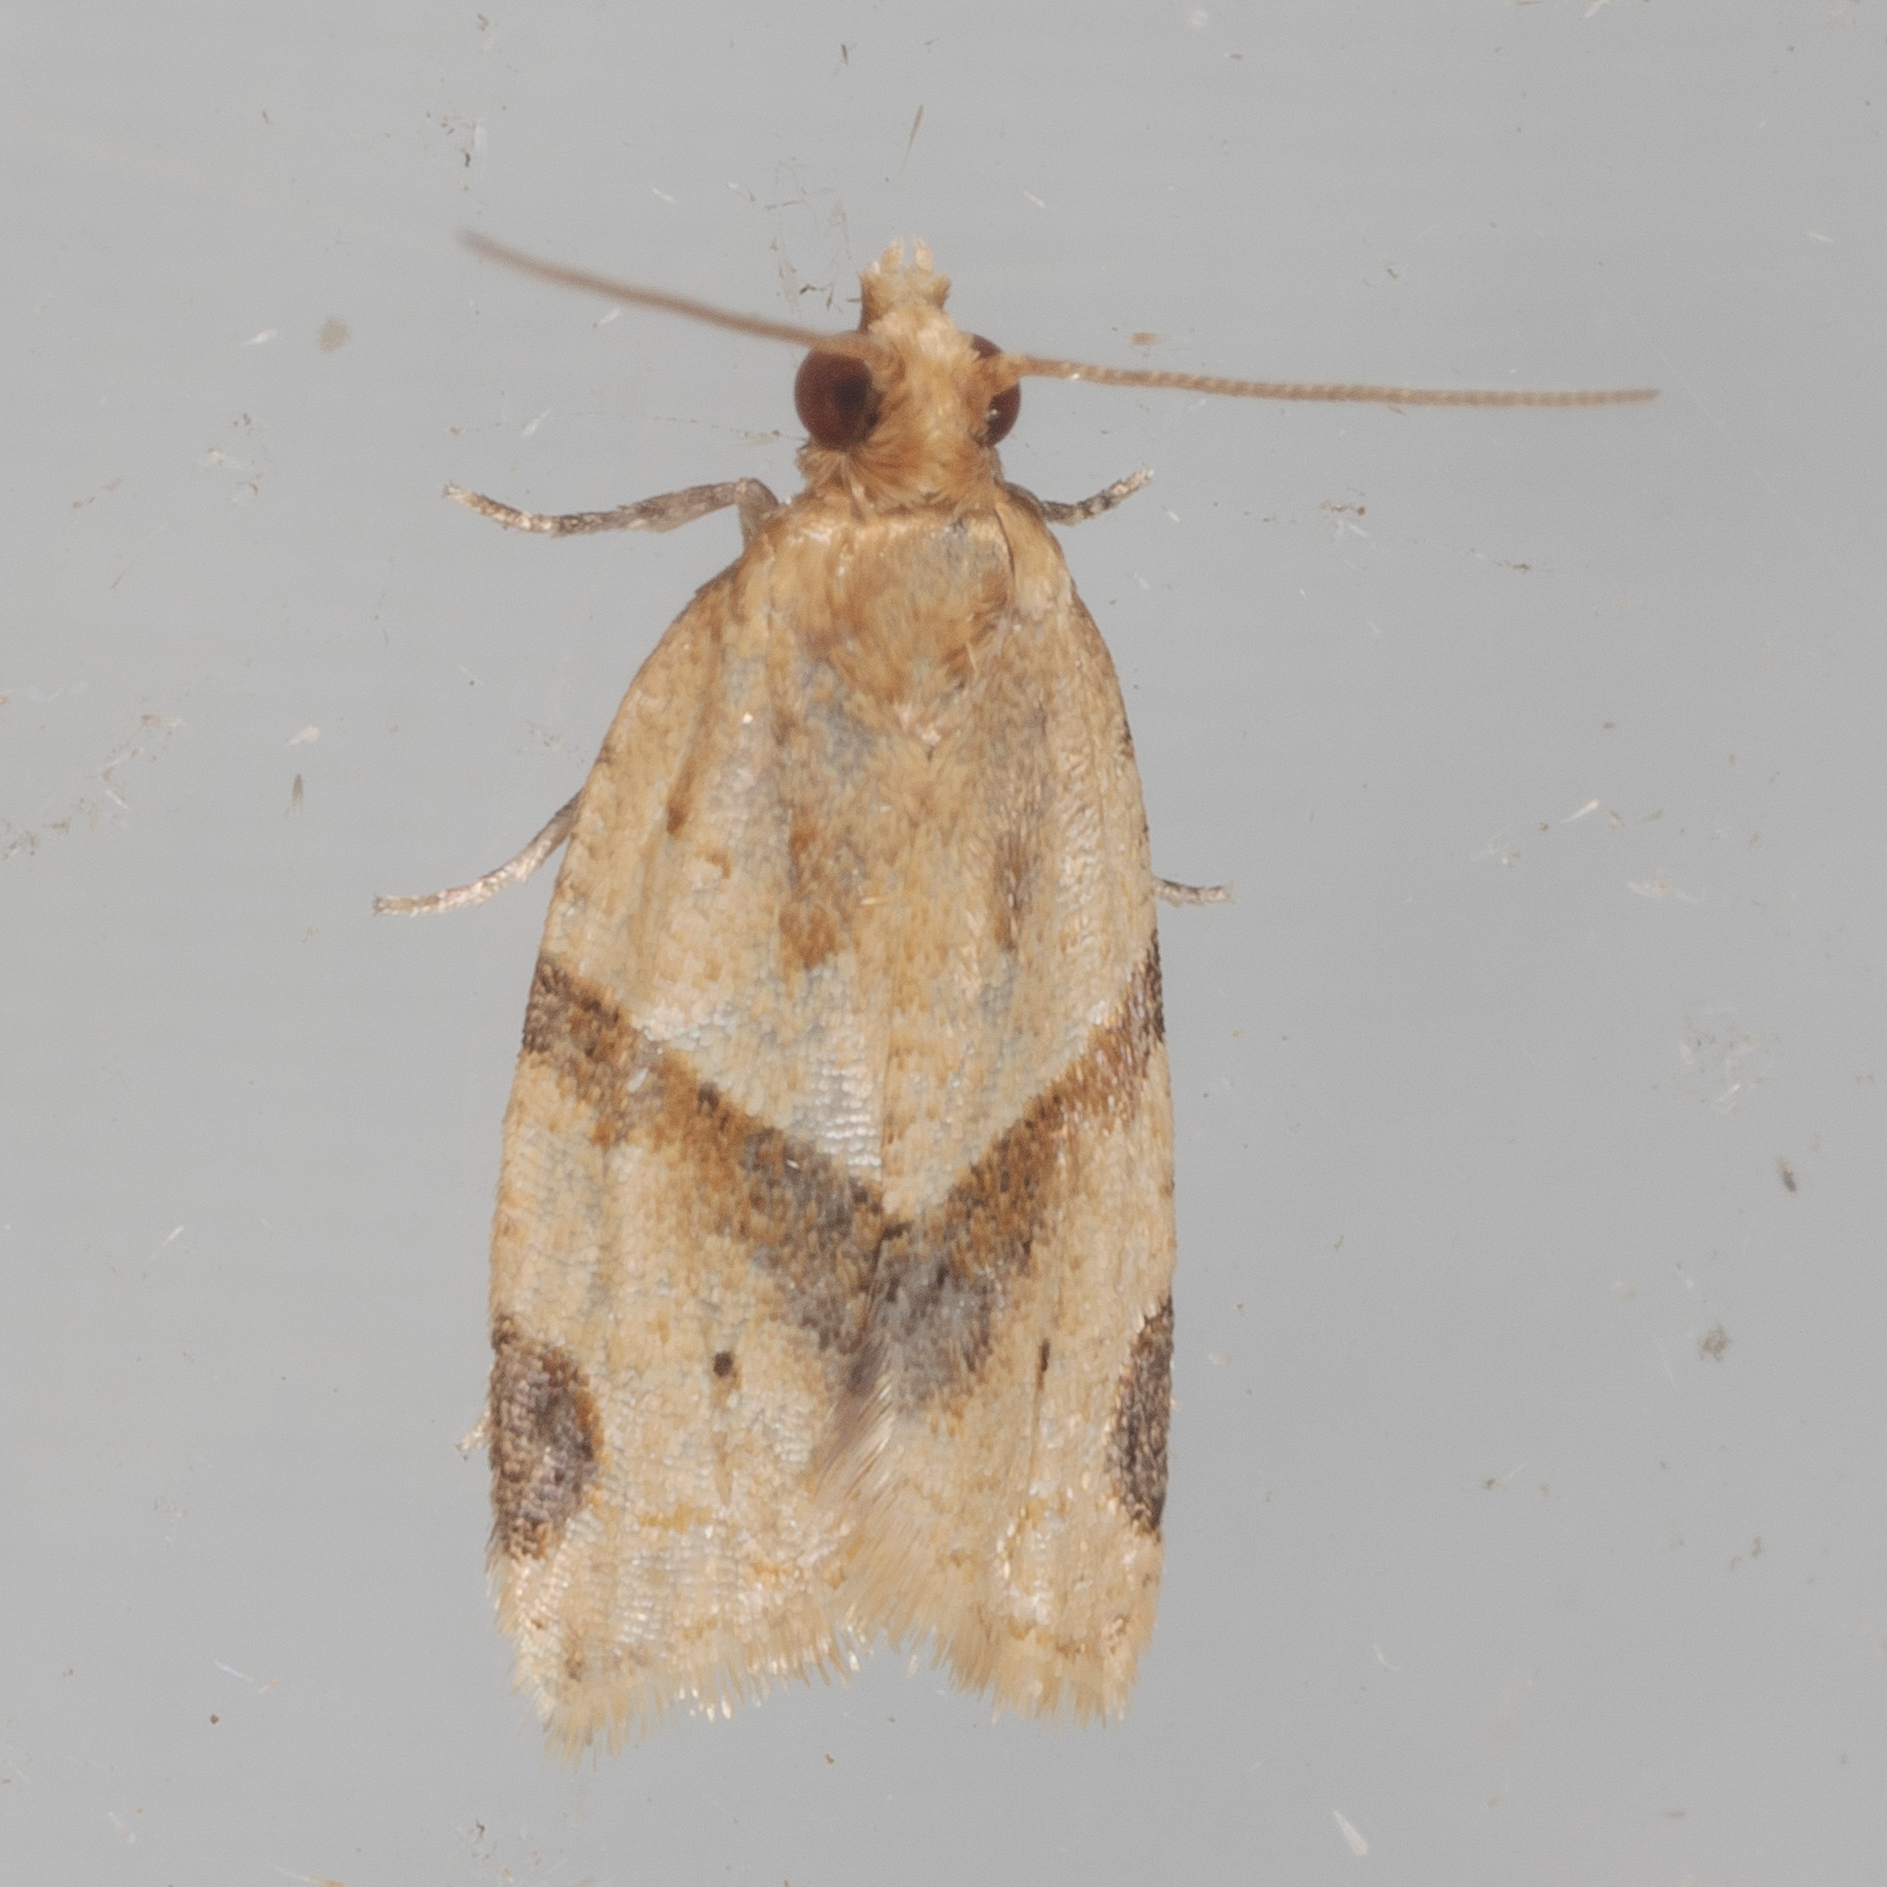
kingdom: Animalia
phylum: Arthropoda
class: Insecta
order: Lepidoptera
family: Tortricidae
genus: Clepsis
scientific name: Clepsis peritana
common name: Garden tortrix
